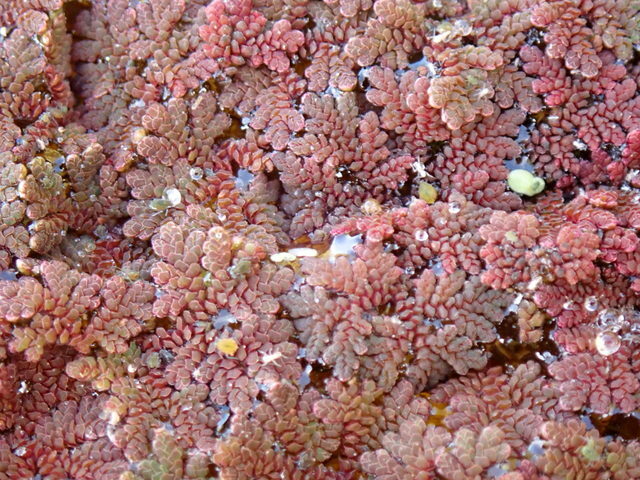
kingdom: Plantae
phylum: Tracheophyta
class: Polypodiopsida
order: Salviniales
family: Salviniaceae
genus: Azolla
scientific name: Azolla caroliniana
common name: Carolina mosquitofern
